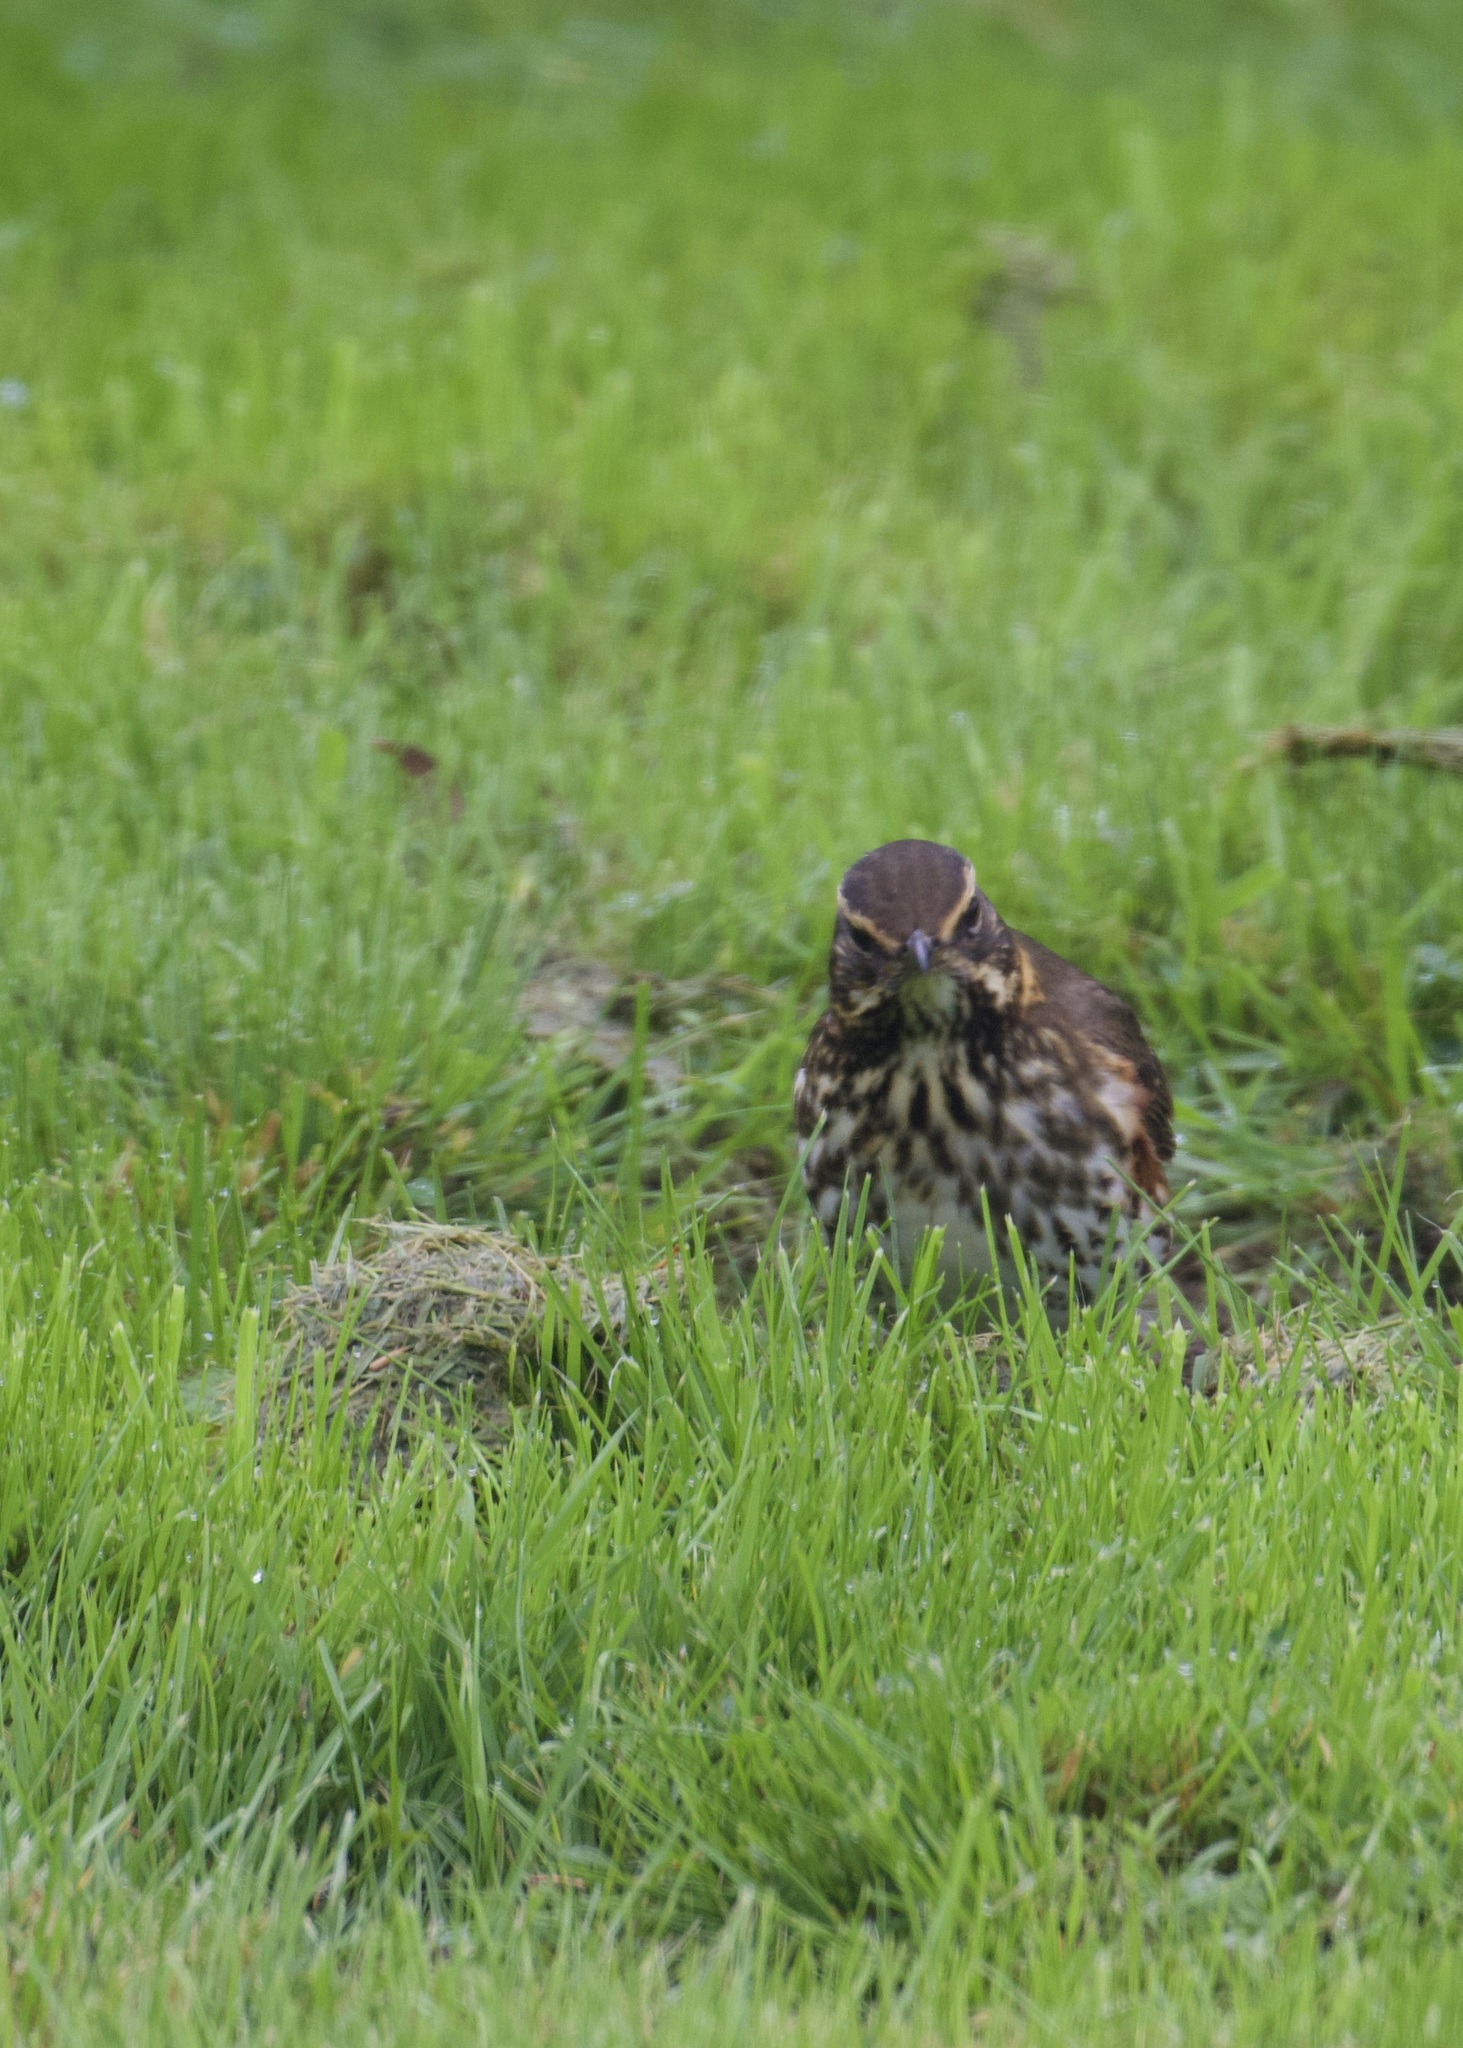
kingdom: Animalia
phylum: Chordata
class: Aves
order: Passeriformes
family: Turdidae
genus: Turdus
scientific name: Turdus iliacus
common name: Redwing
